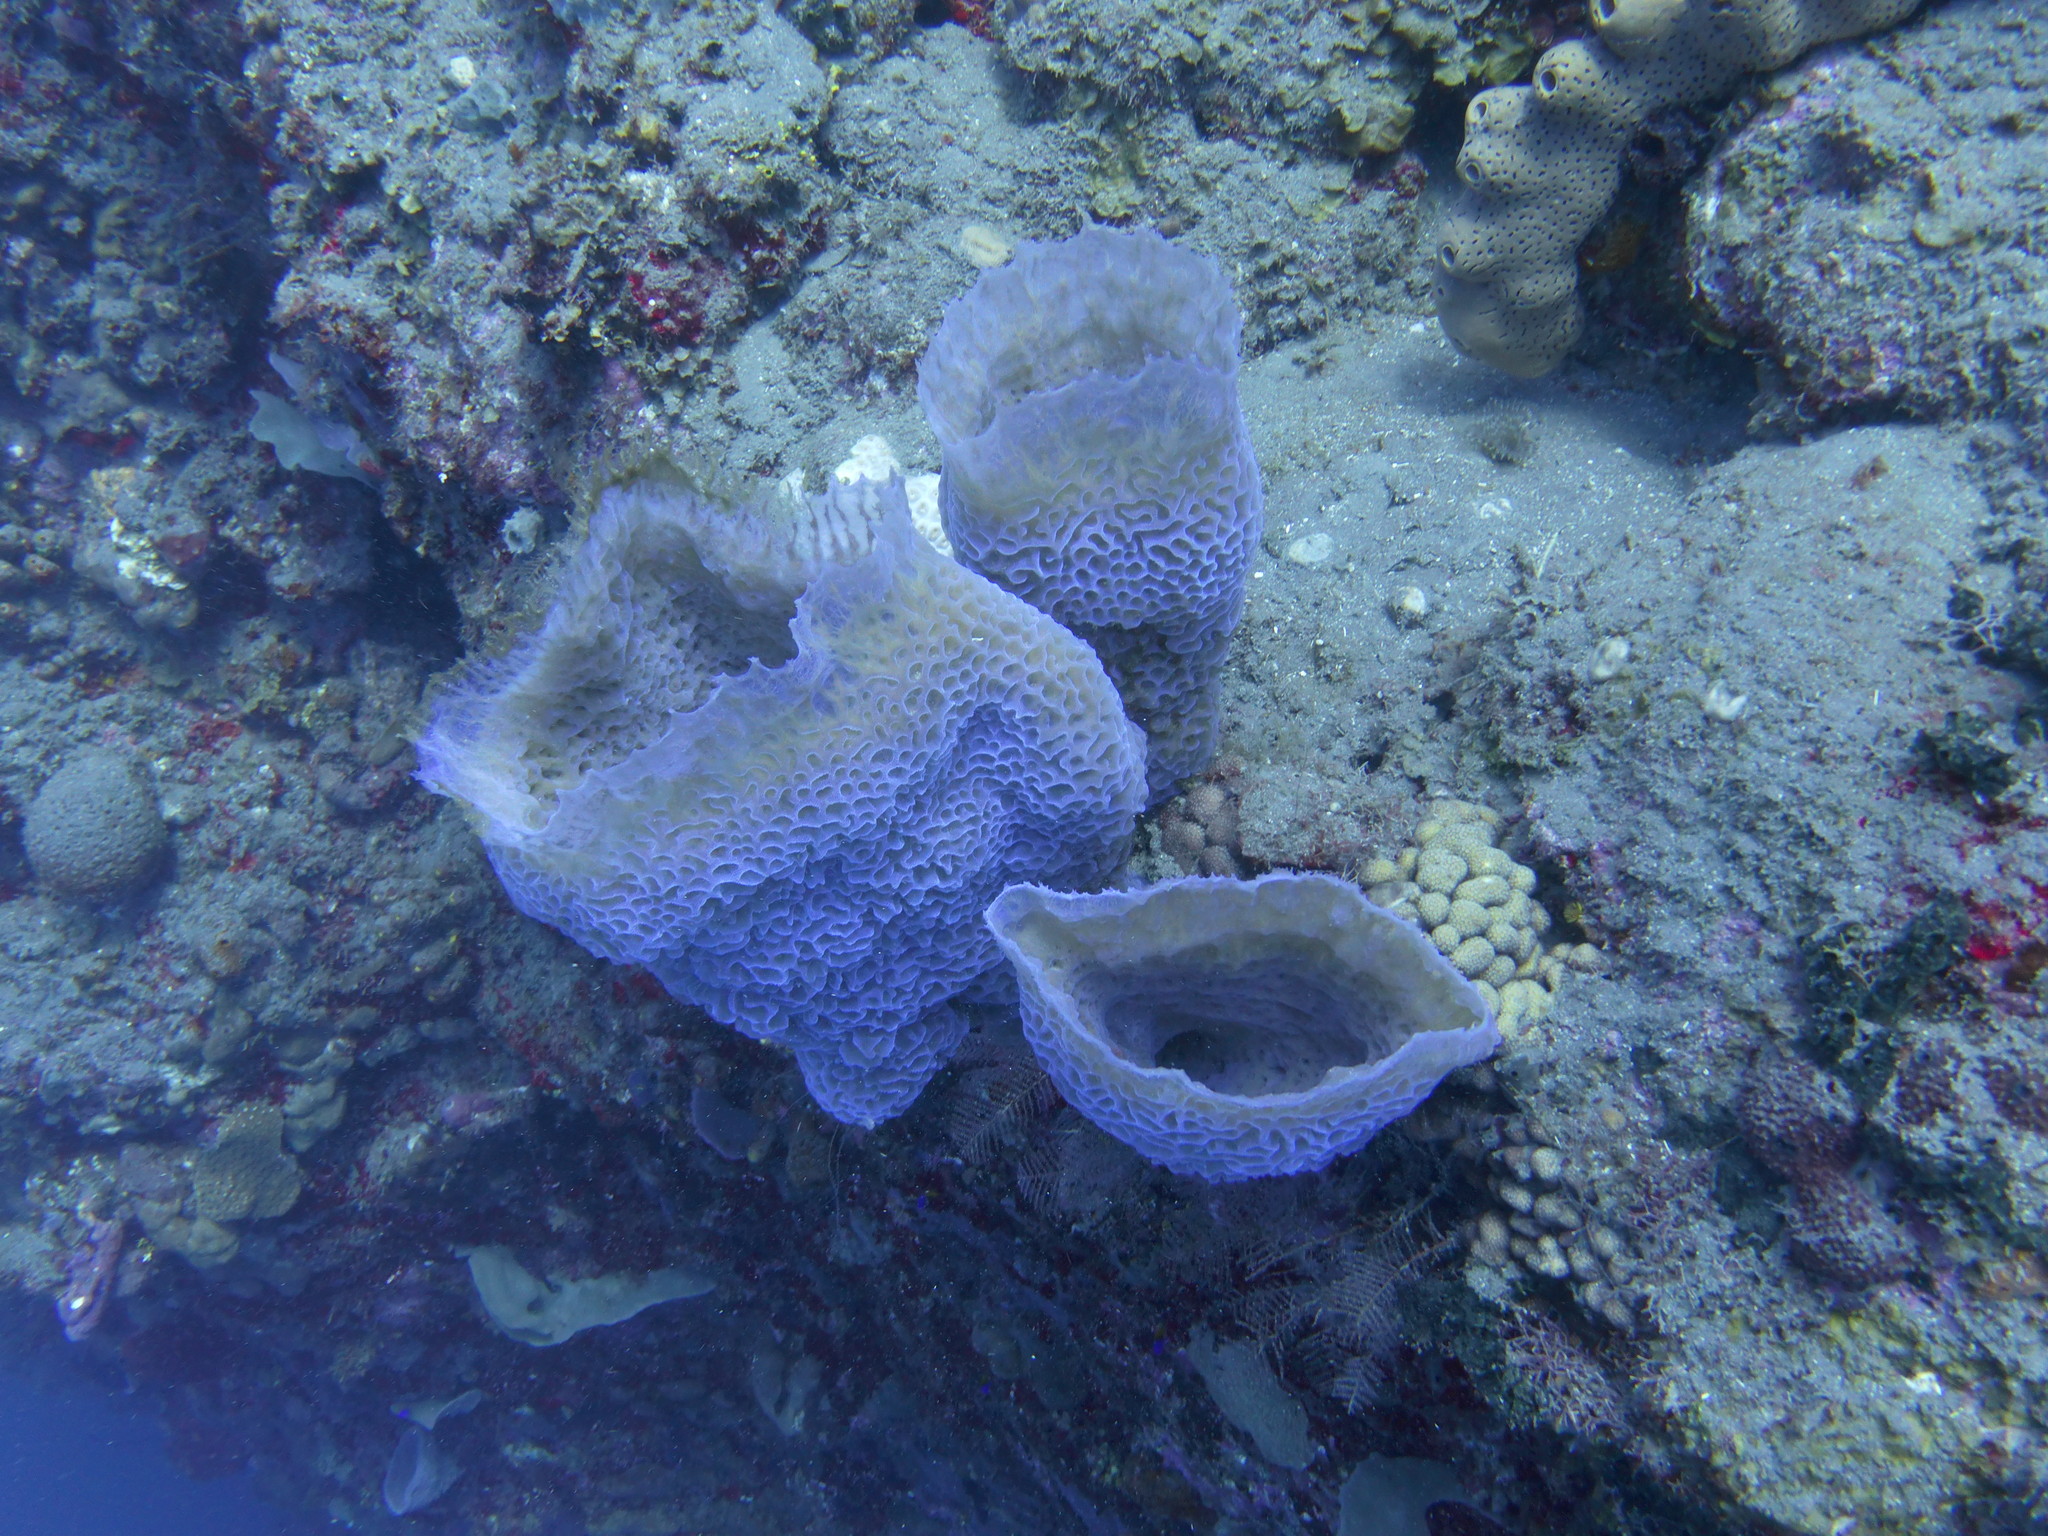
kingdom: Animalia
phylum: Porifera
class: Demospongiae
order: Haplosclerida
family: Callyspongiidae
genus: Callyspongia
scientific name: Callyspongia plicifera
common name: Azure vase sponge
